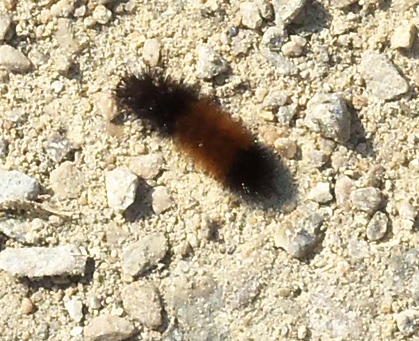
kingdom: Animalia
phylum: Arthropoda
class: Insecta
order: Lepidoptera
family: Erebidae
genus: Pyrrharctia
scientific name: Pyrrharctia isabella
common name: Isabella tiger moth
